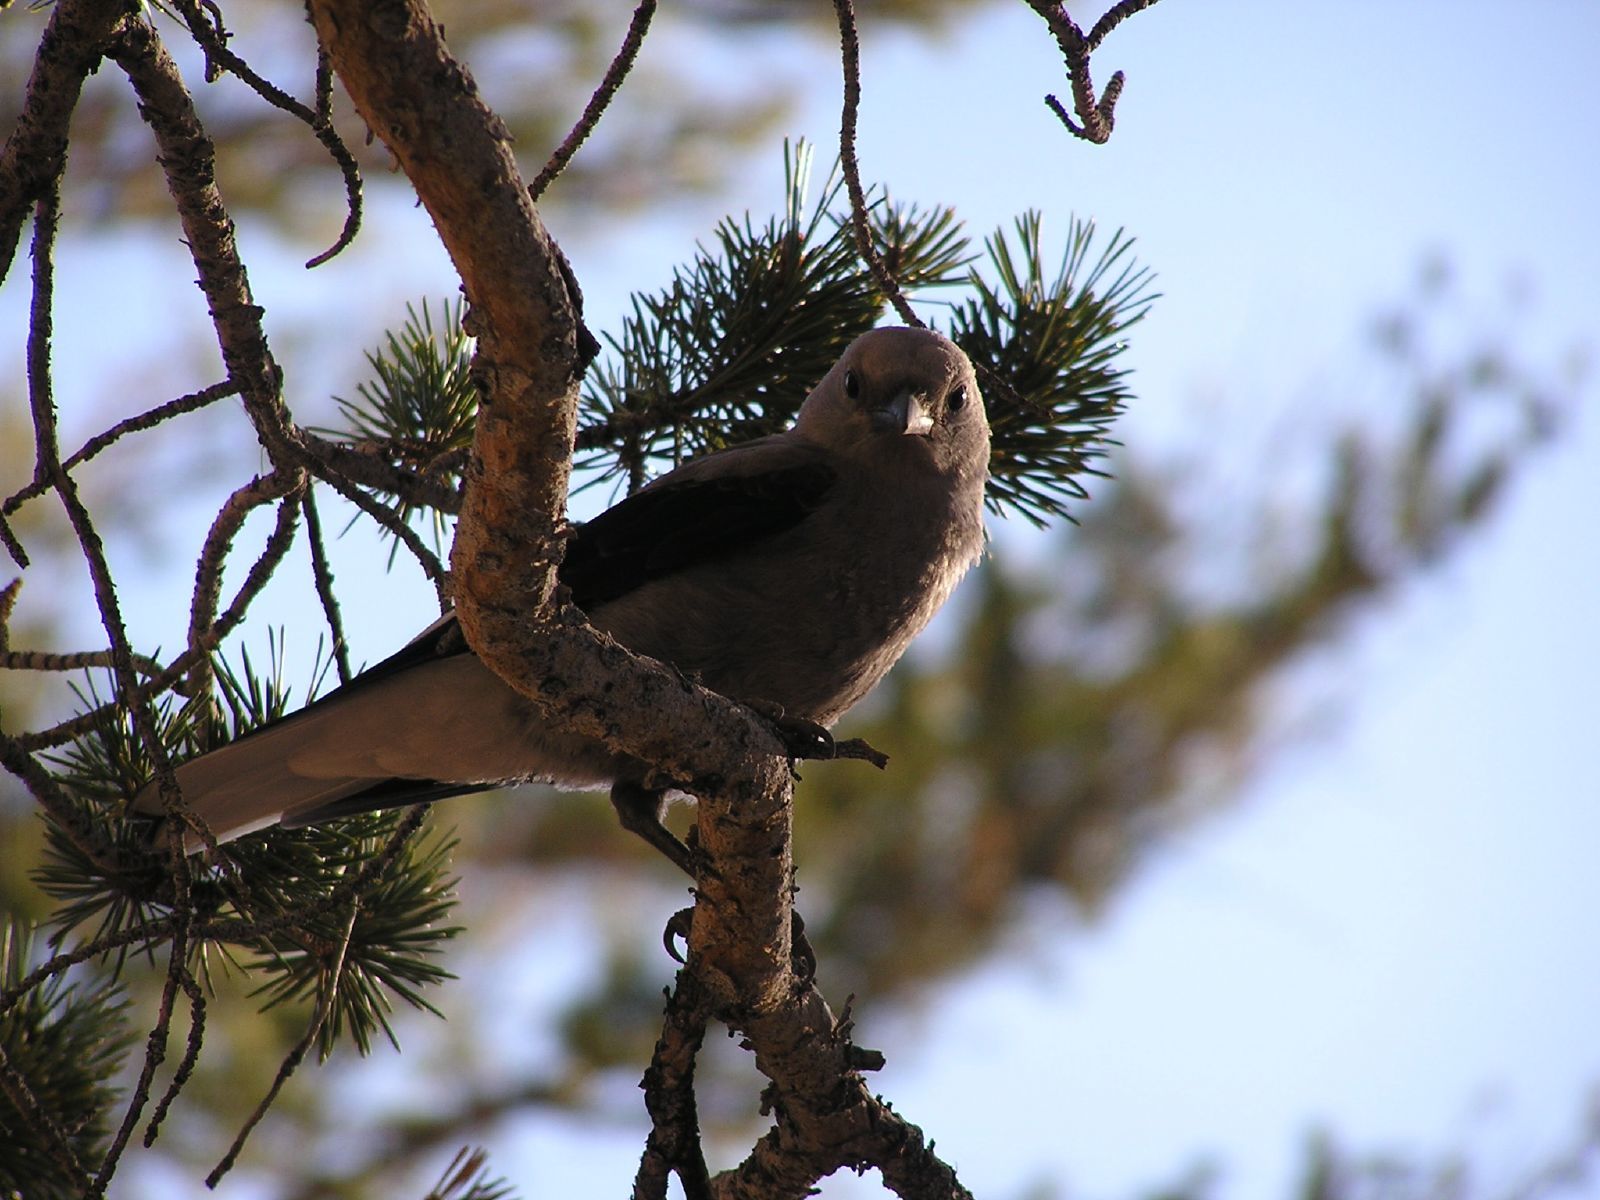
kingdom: Animalia
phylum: Chordata
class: Aves
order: Passeriformes
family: Corvidae
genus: Nucifraga
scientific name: Nucifraga columbiana
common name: Clark's nutcracker
